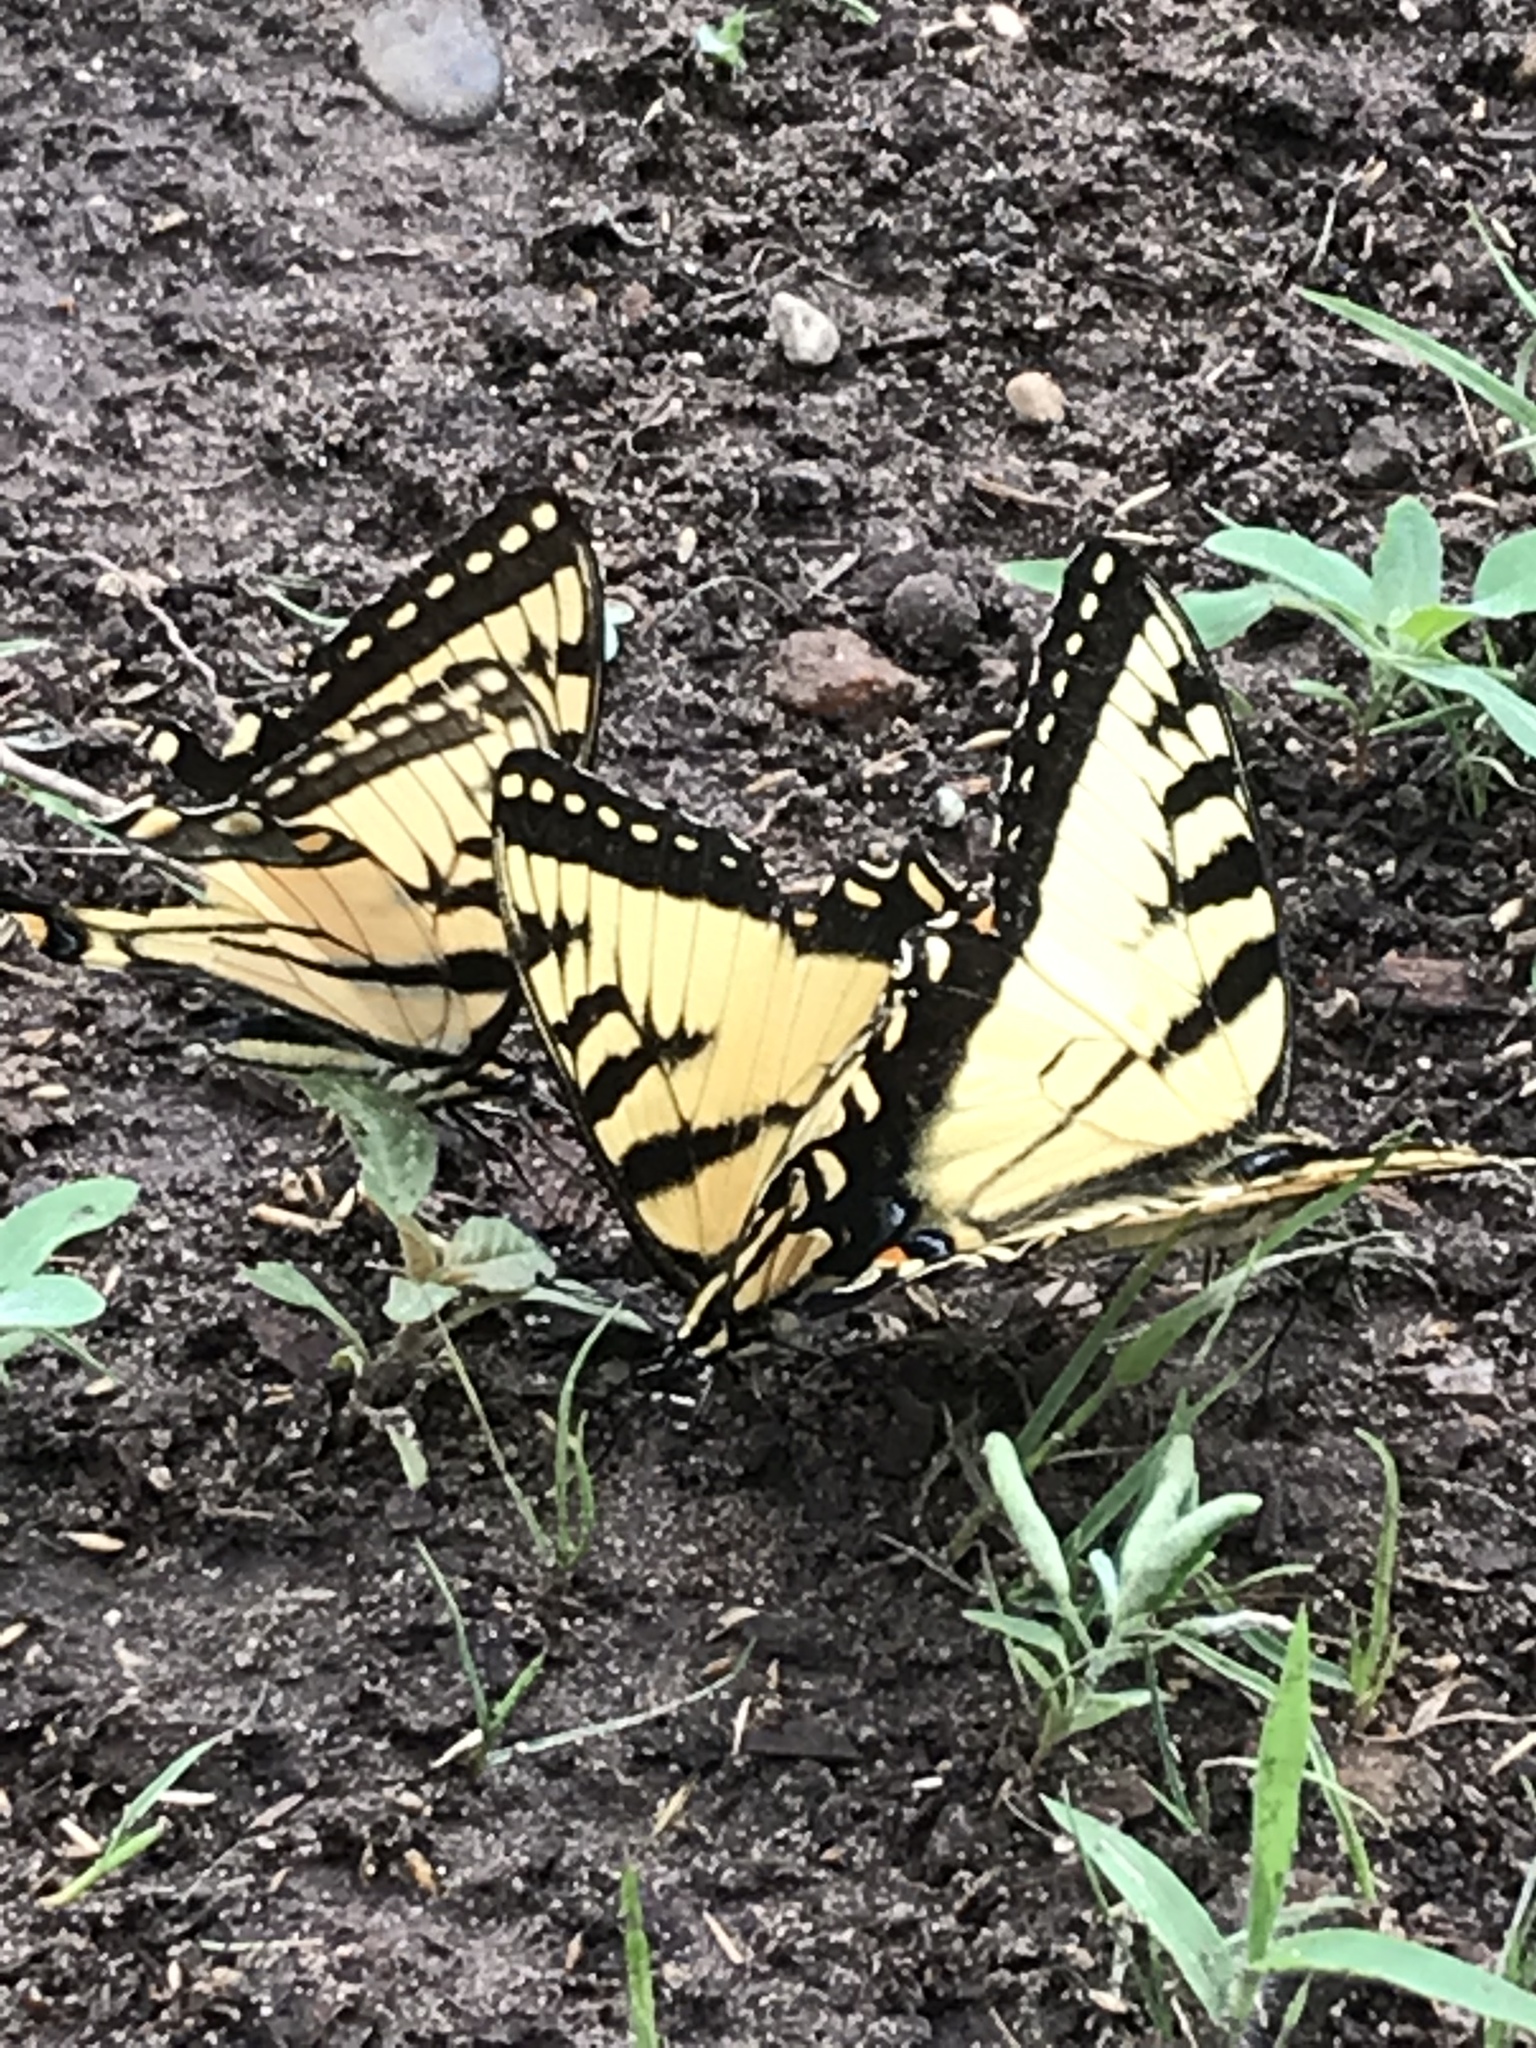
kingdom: Animalia
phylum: Arthropoda
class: Insecta
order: Lepidoptera
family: Papilionidae
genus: Papilio
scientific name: Papilio
